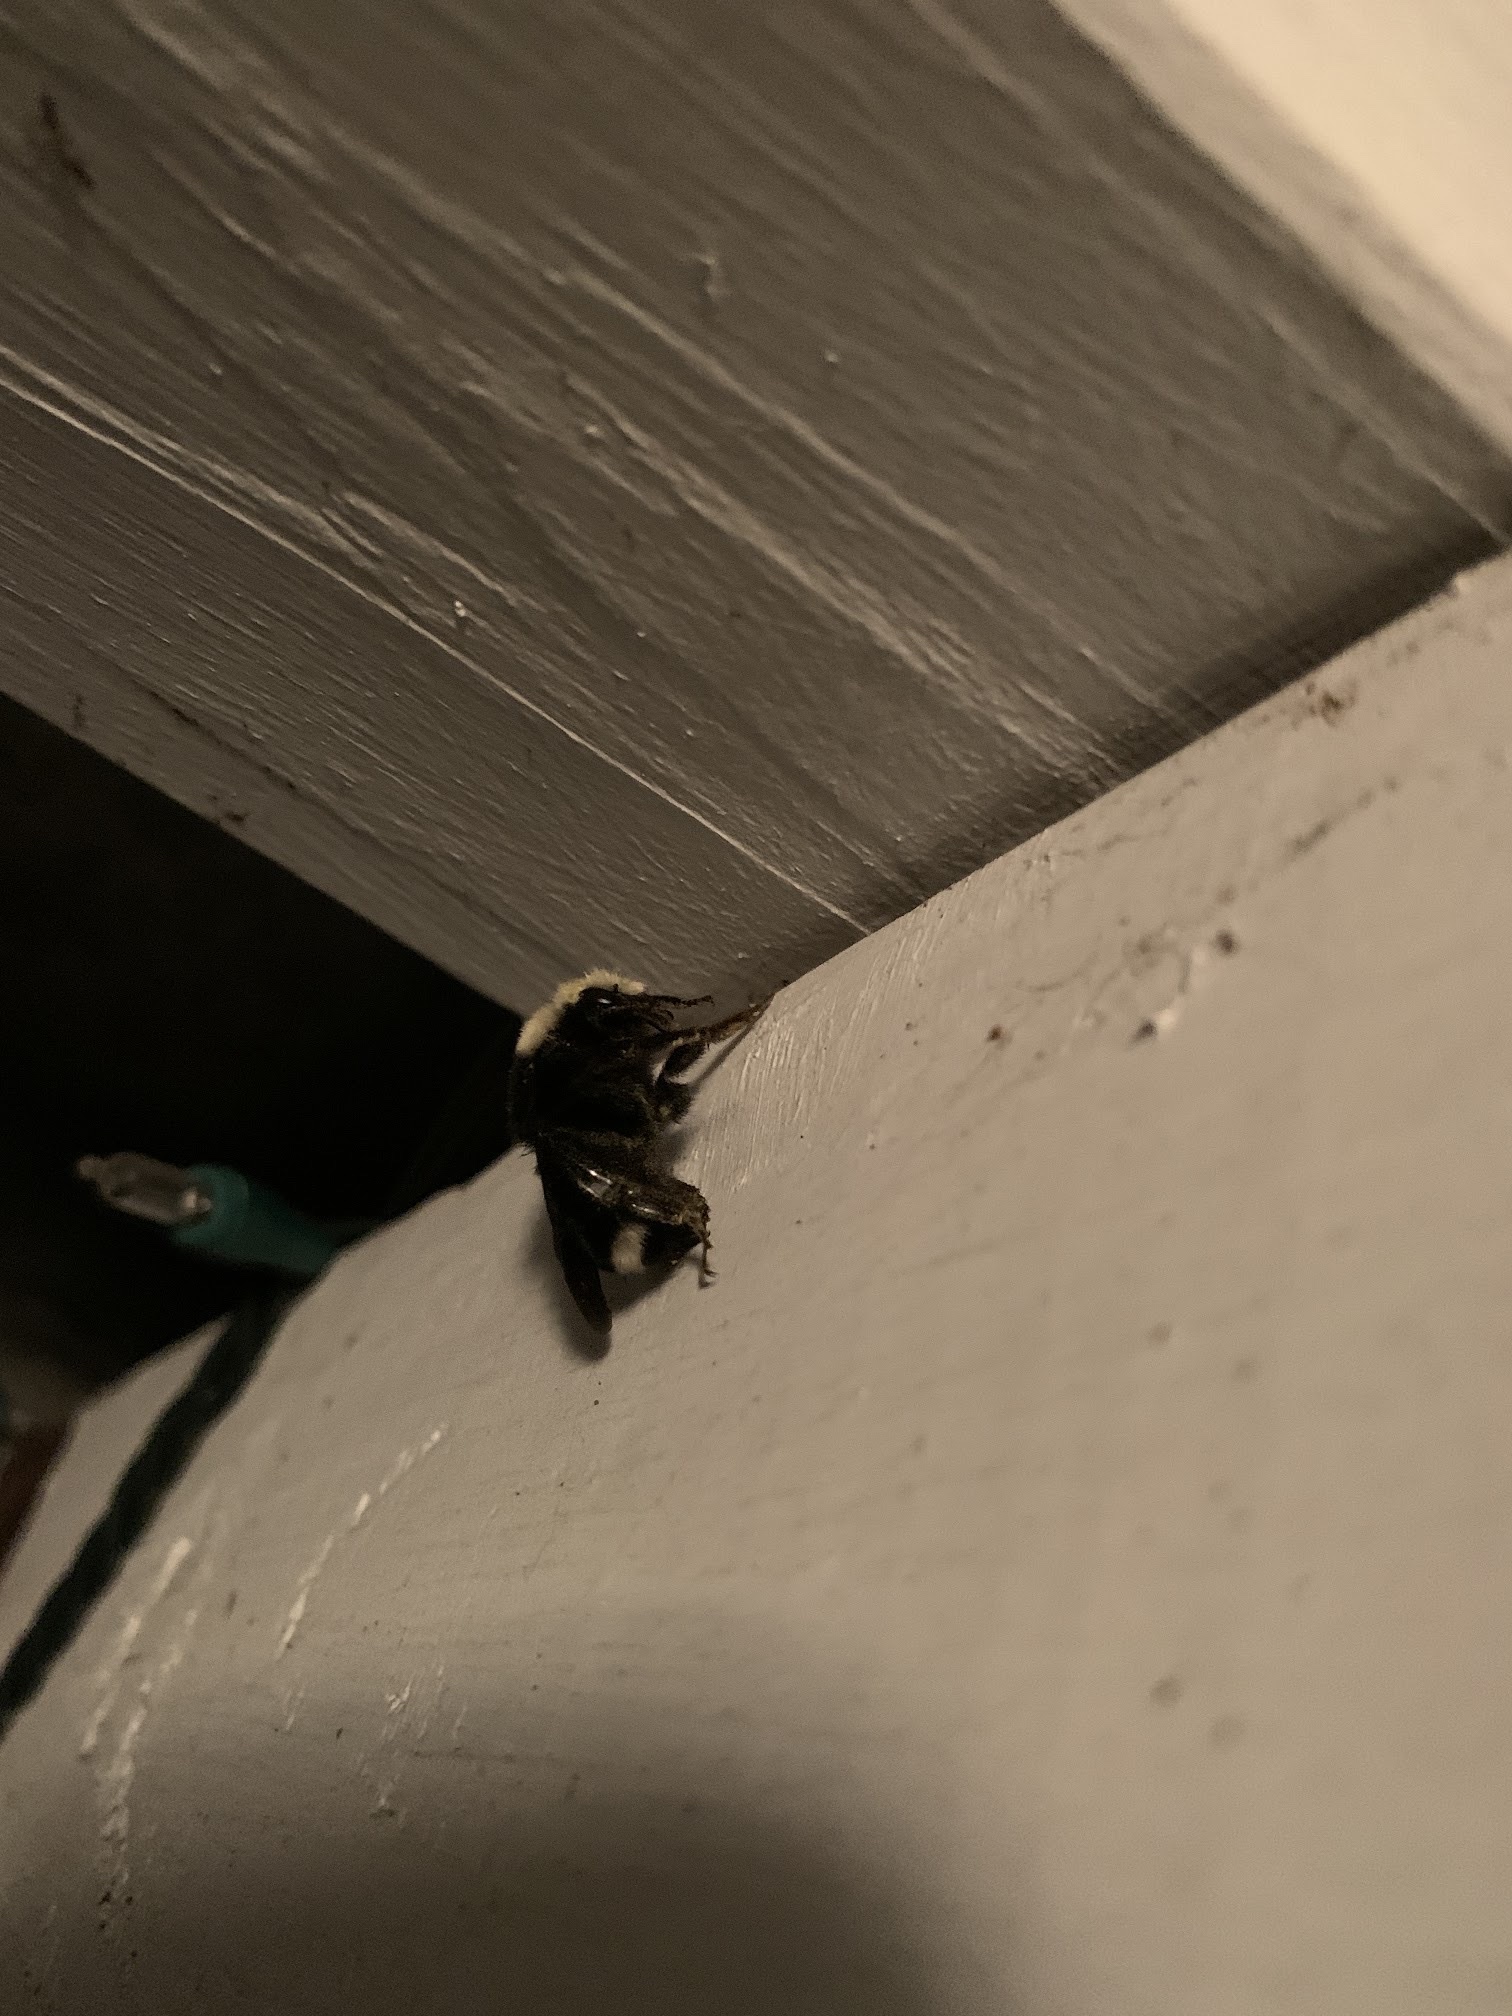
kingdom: Animalia
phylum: Arthropoda
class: Insecta
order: Hymenoptera
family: Apidae
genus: Bombus
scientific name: Bombus vosnesenskii
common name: Vosnesensky bumble bee
